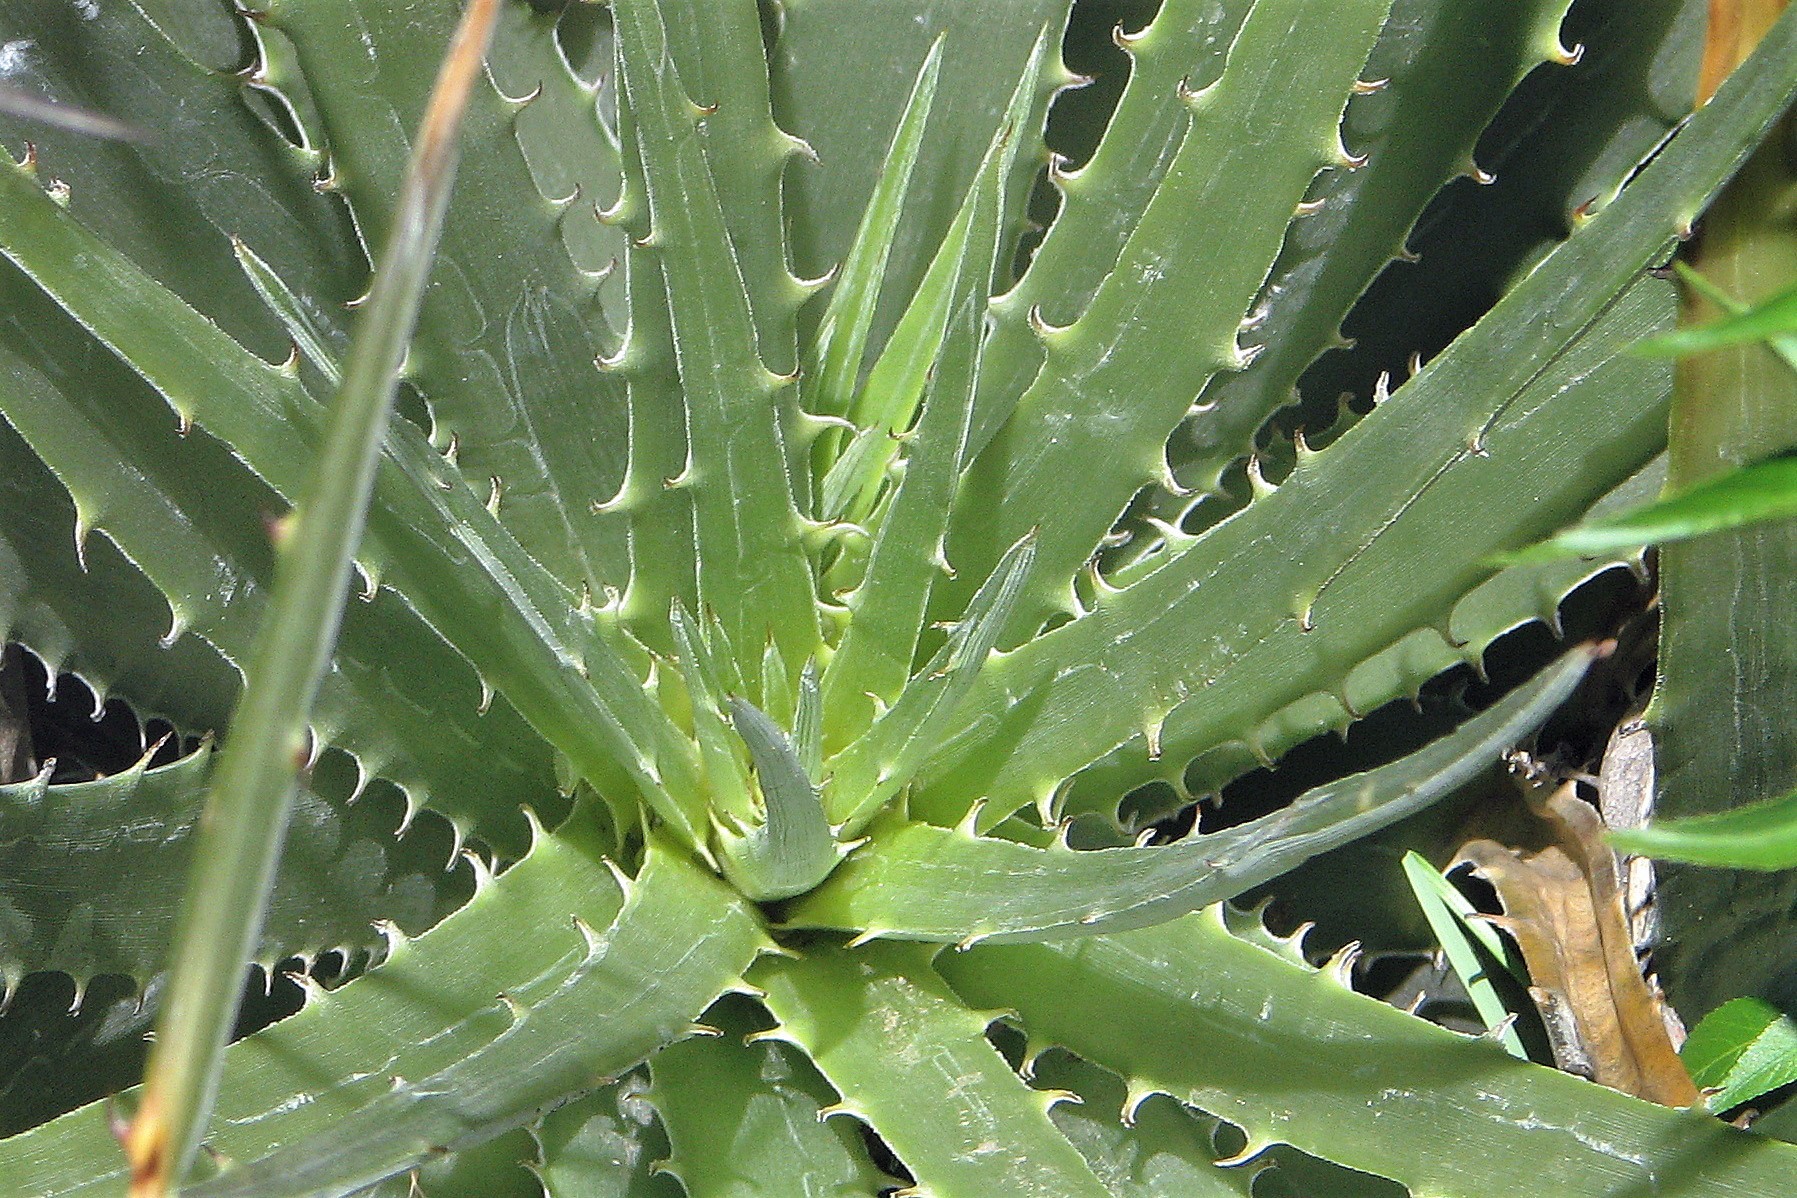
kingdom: Plantae
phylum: Tracheophyta
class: Liliopsida
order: Poales
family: Bromeliaceae
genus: Deuterocohnia
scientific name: Deuterocohnia schreiteri
